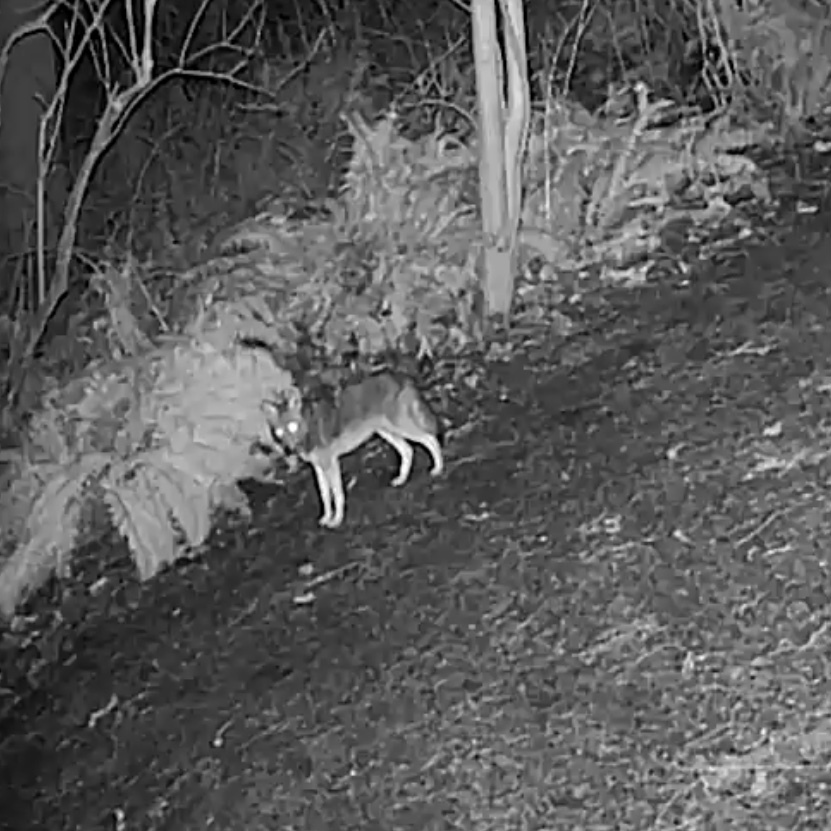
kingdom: Animalia
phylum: Chordata
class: Mammalia
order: Carnivora
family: Canidae
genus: Canis
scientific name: Canis latrans
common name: Coyote
